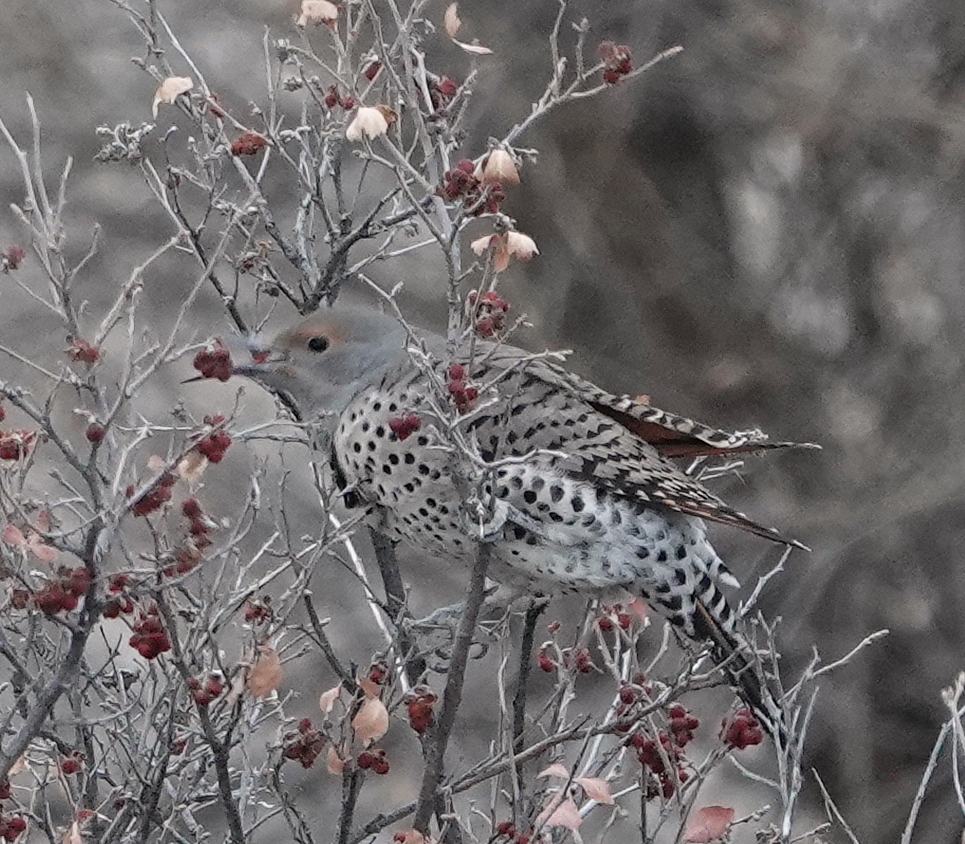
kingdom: Animalia
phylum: Chordata
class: Aves
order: Piciformes
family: Picidae
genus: Colaptes
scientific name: Colaptes auratus
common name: Northern flicker
